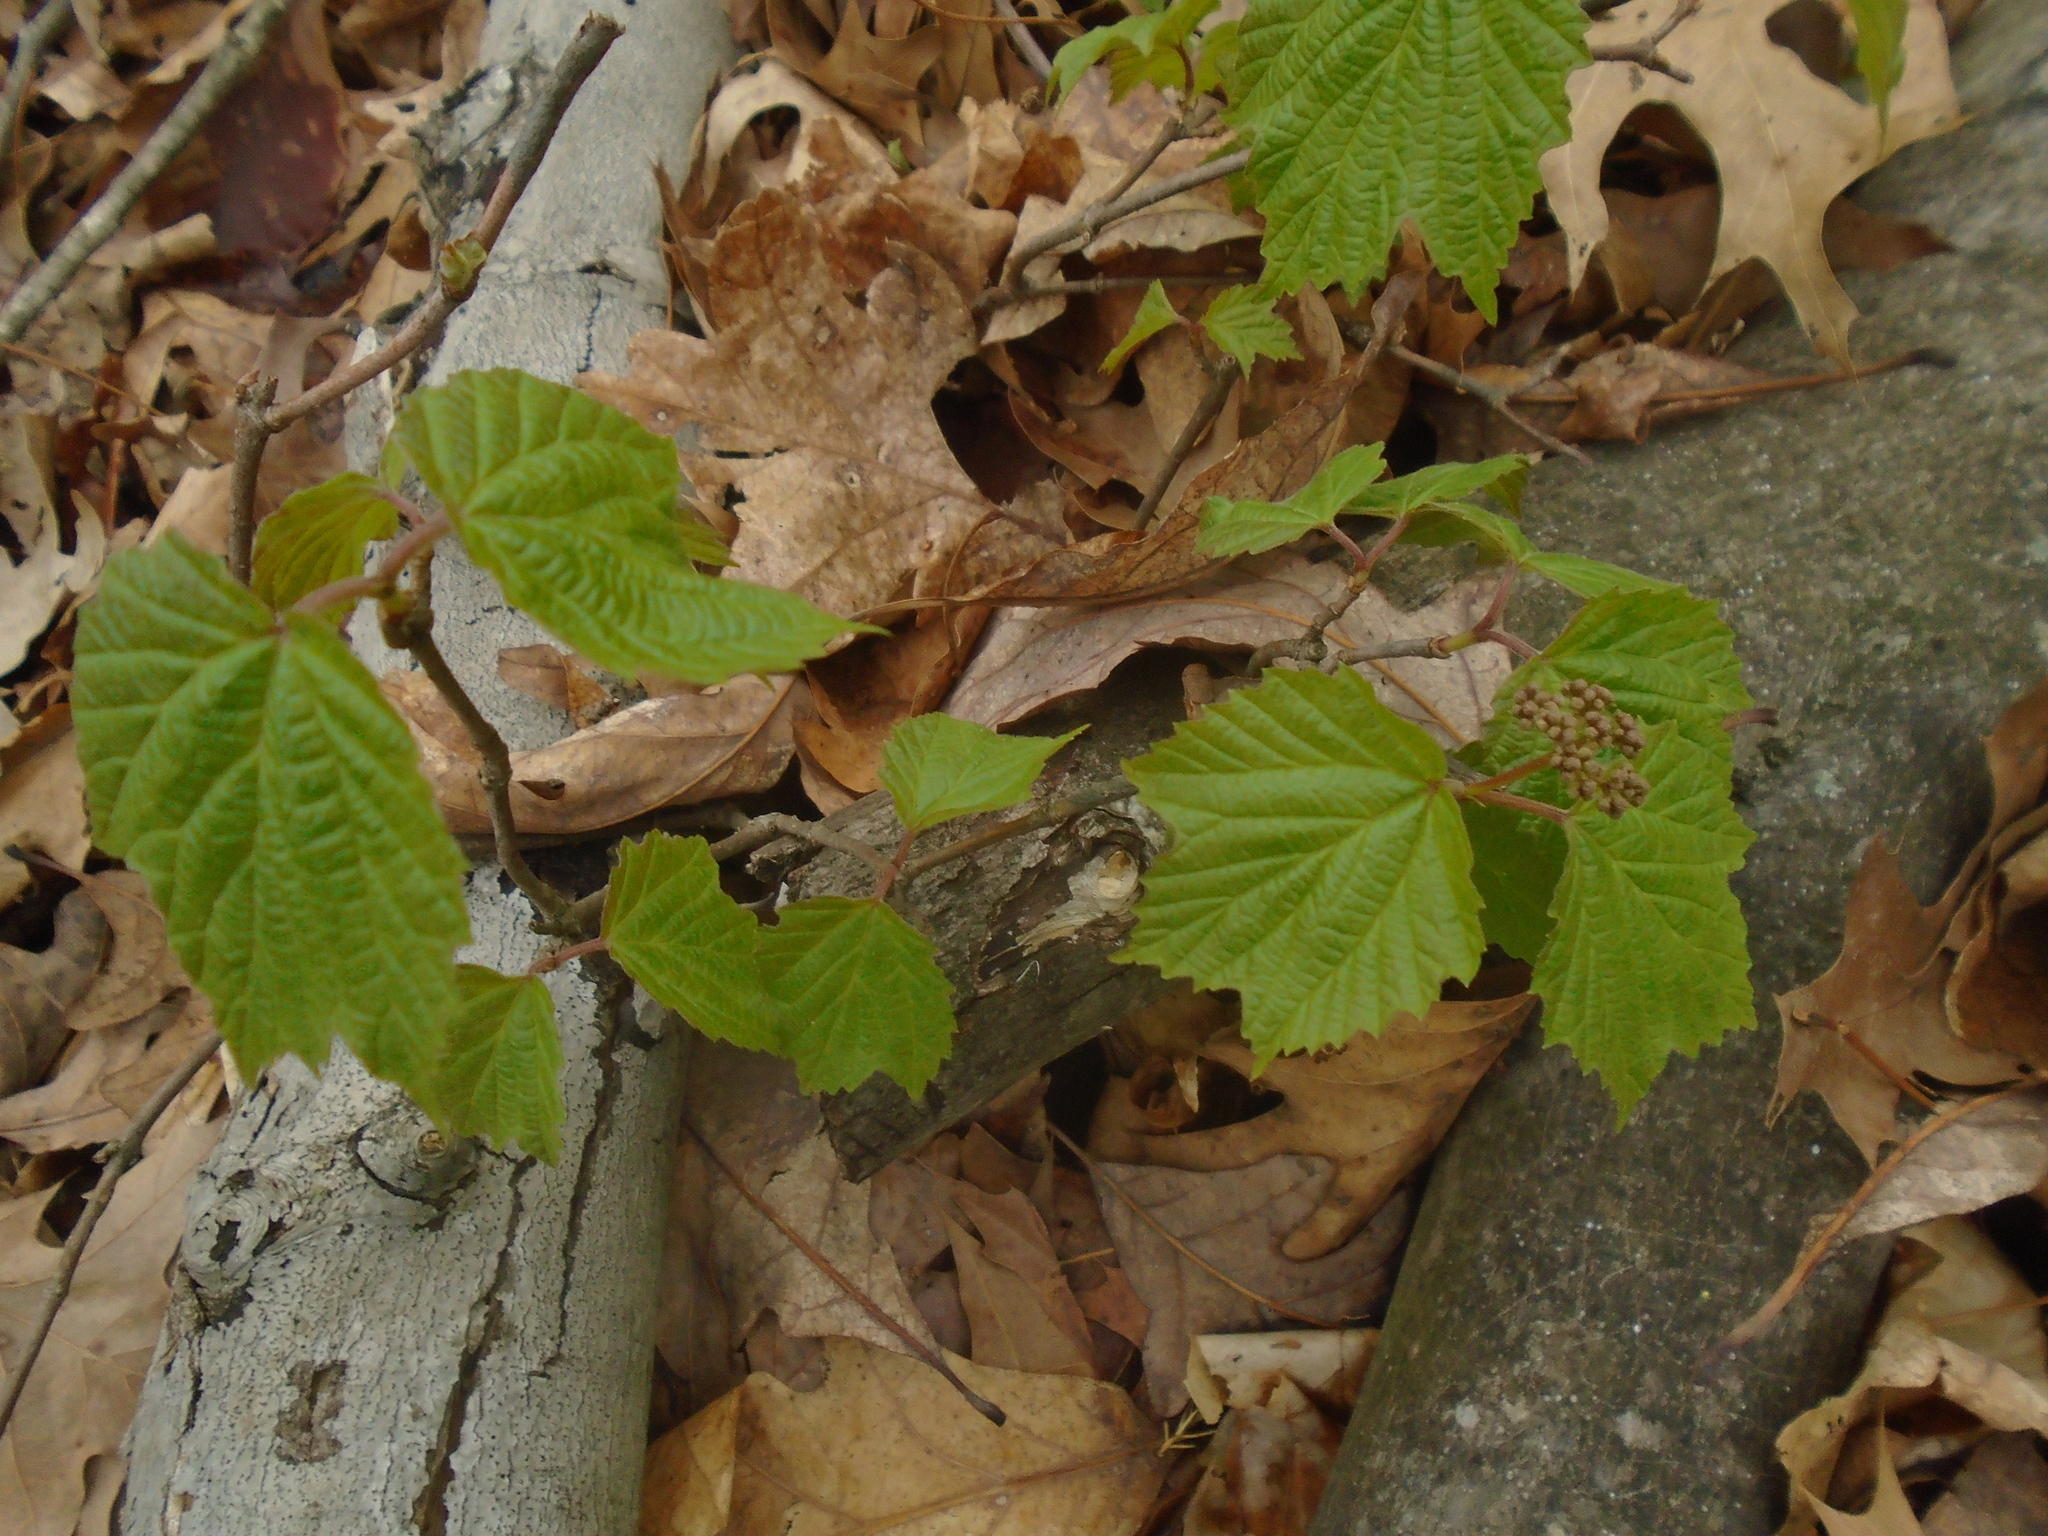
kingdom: Plantae
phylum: Tracheophyta
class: Magnoliopsida
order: Dipsacales
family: Viburnaceae
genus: Viburnum
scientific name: Viburnum acerifolium
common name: Dockmackie
